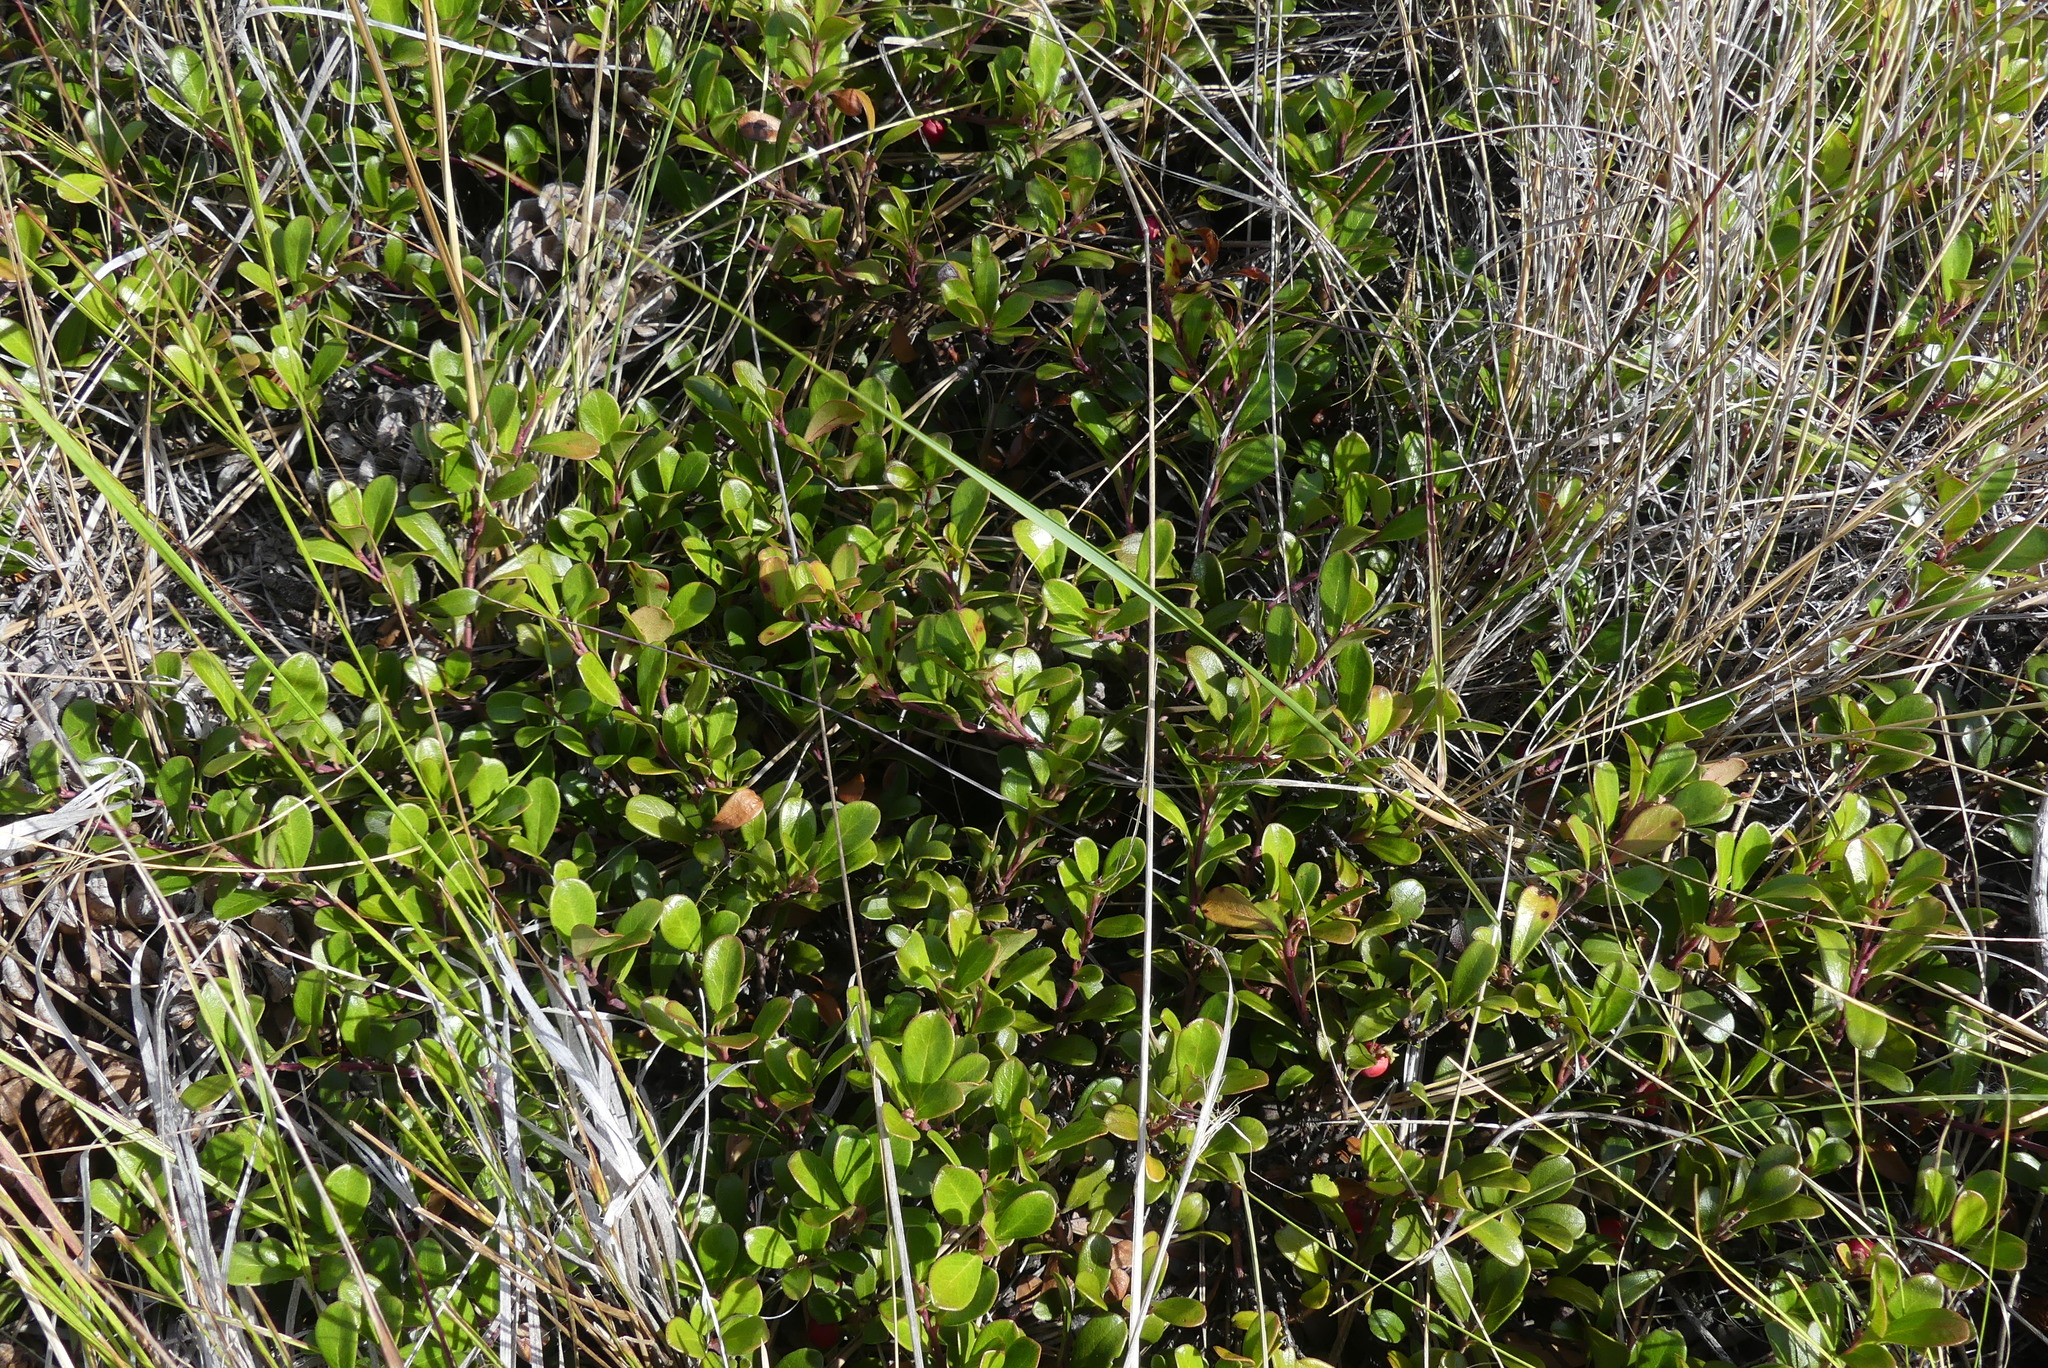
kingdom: Plantae
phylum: Tracheophyta
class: Magnoliopsida
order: Ericales
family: Ericaceae
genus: Arctostaphylos
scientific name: Arctostaphylos uva-ursi
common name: Bearberry
